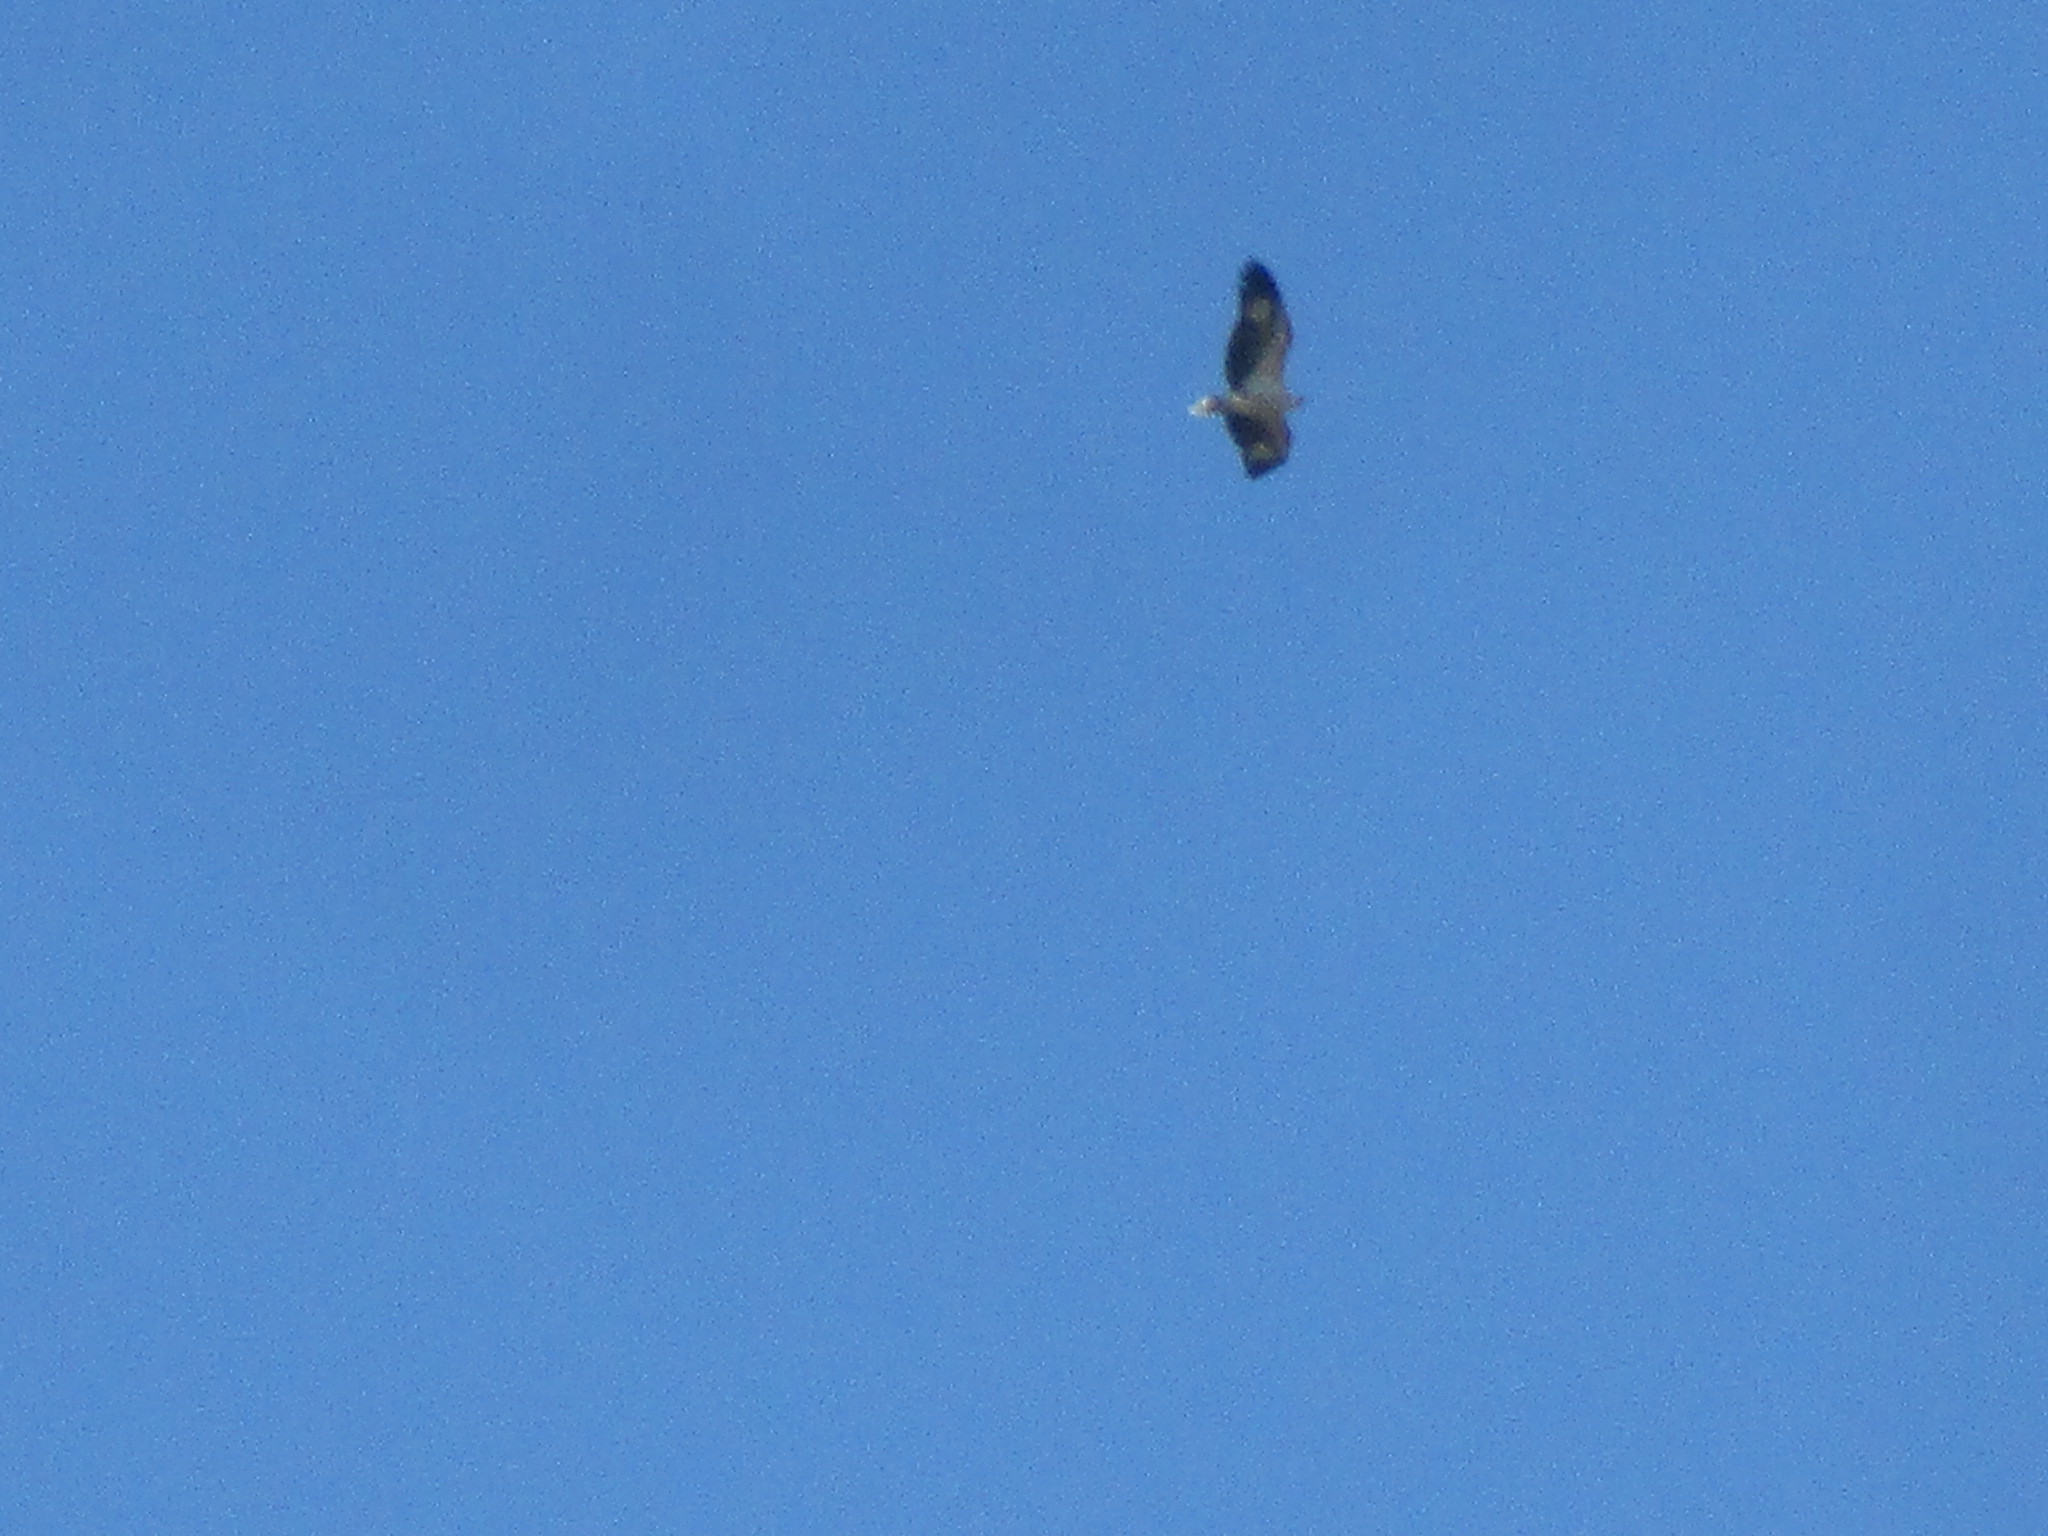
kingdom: Animalia
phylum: Chordata
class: Aves
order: Accipitriformes
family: Accipitridae
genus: Haliaeetus
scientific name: Haliaeetus leucogaster
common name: White-bellied sea eagle
